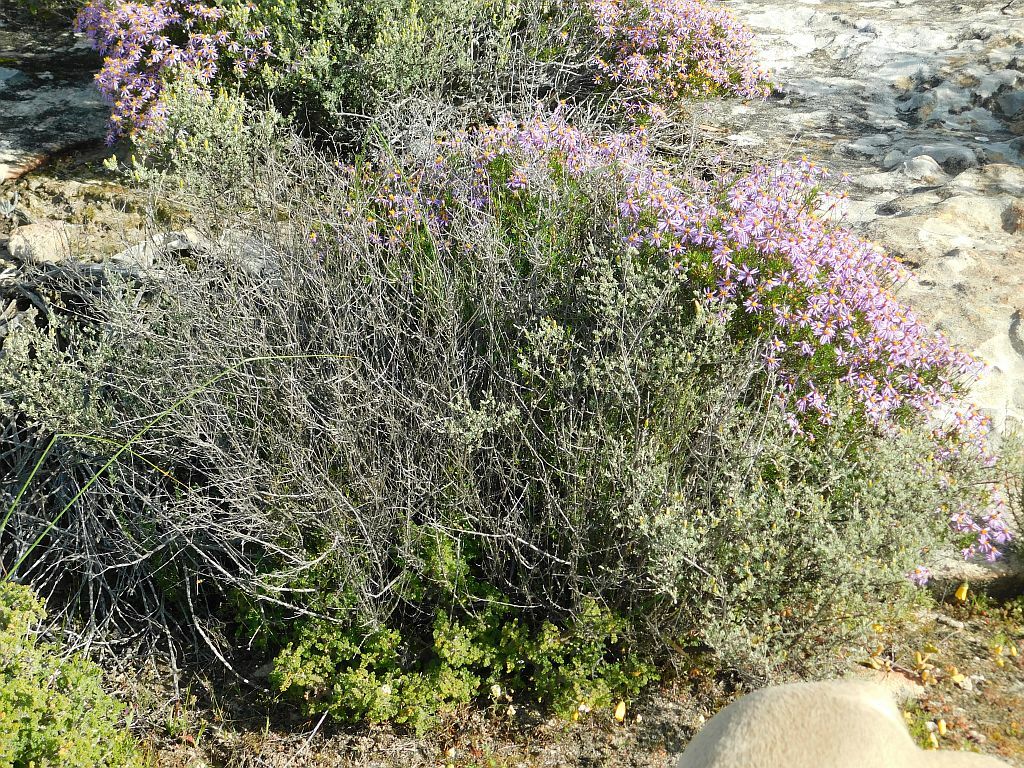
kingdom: Plantae
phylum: Tracheophyta
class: Magnoliopsida
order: Asterales
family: Asteraceae
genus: Pteronia
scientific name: Pteronia incana
